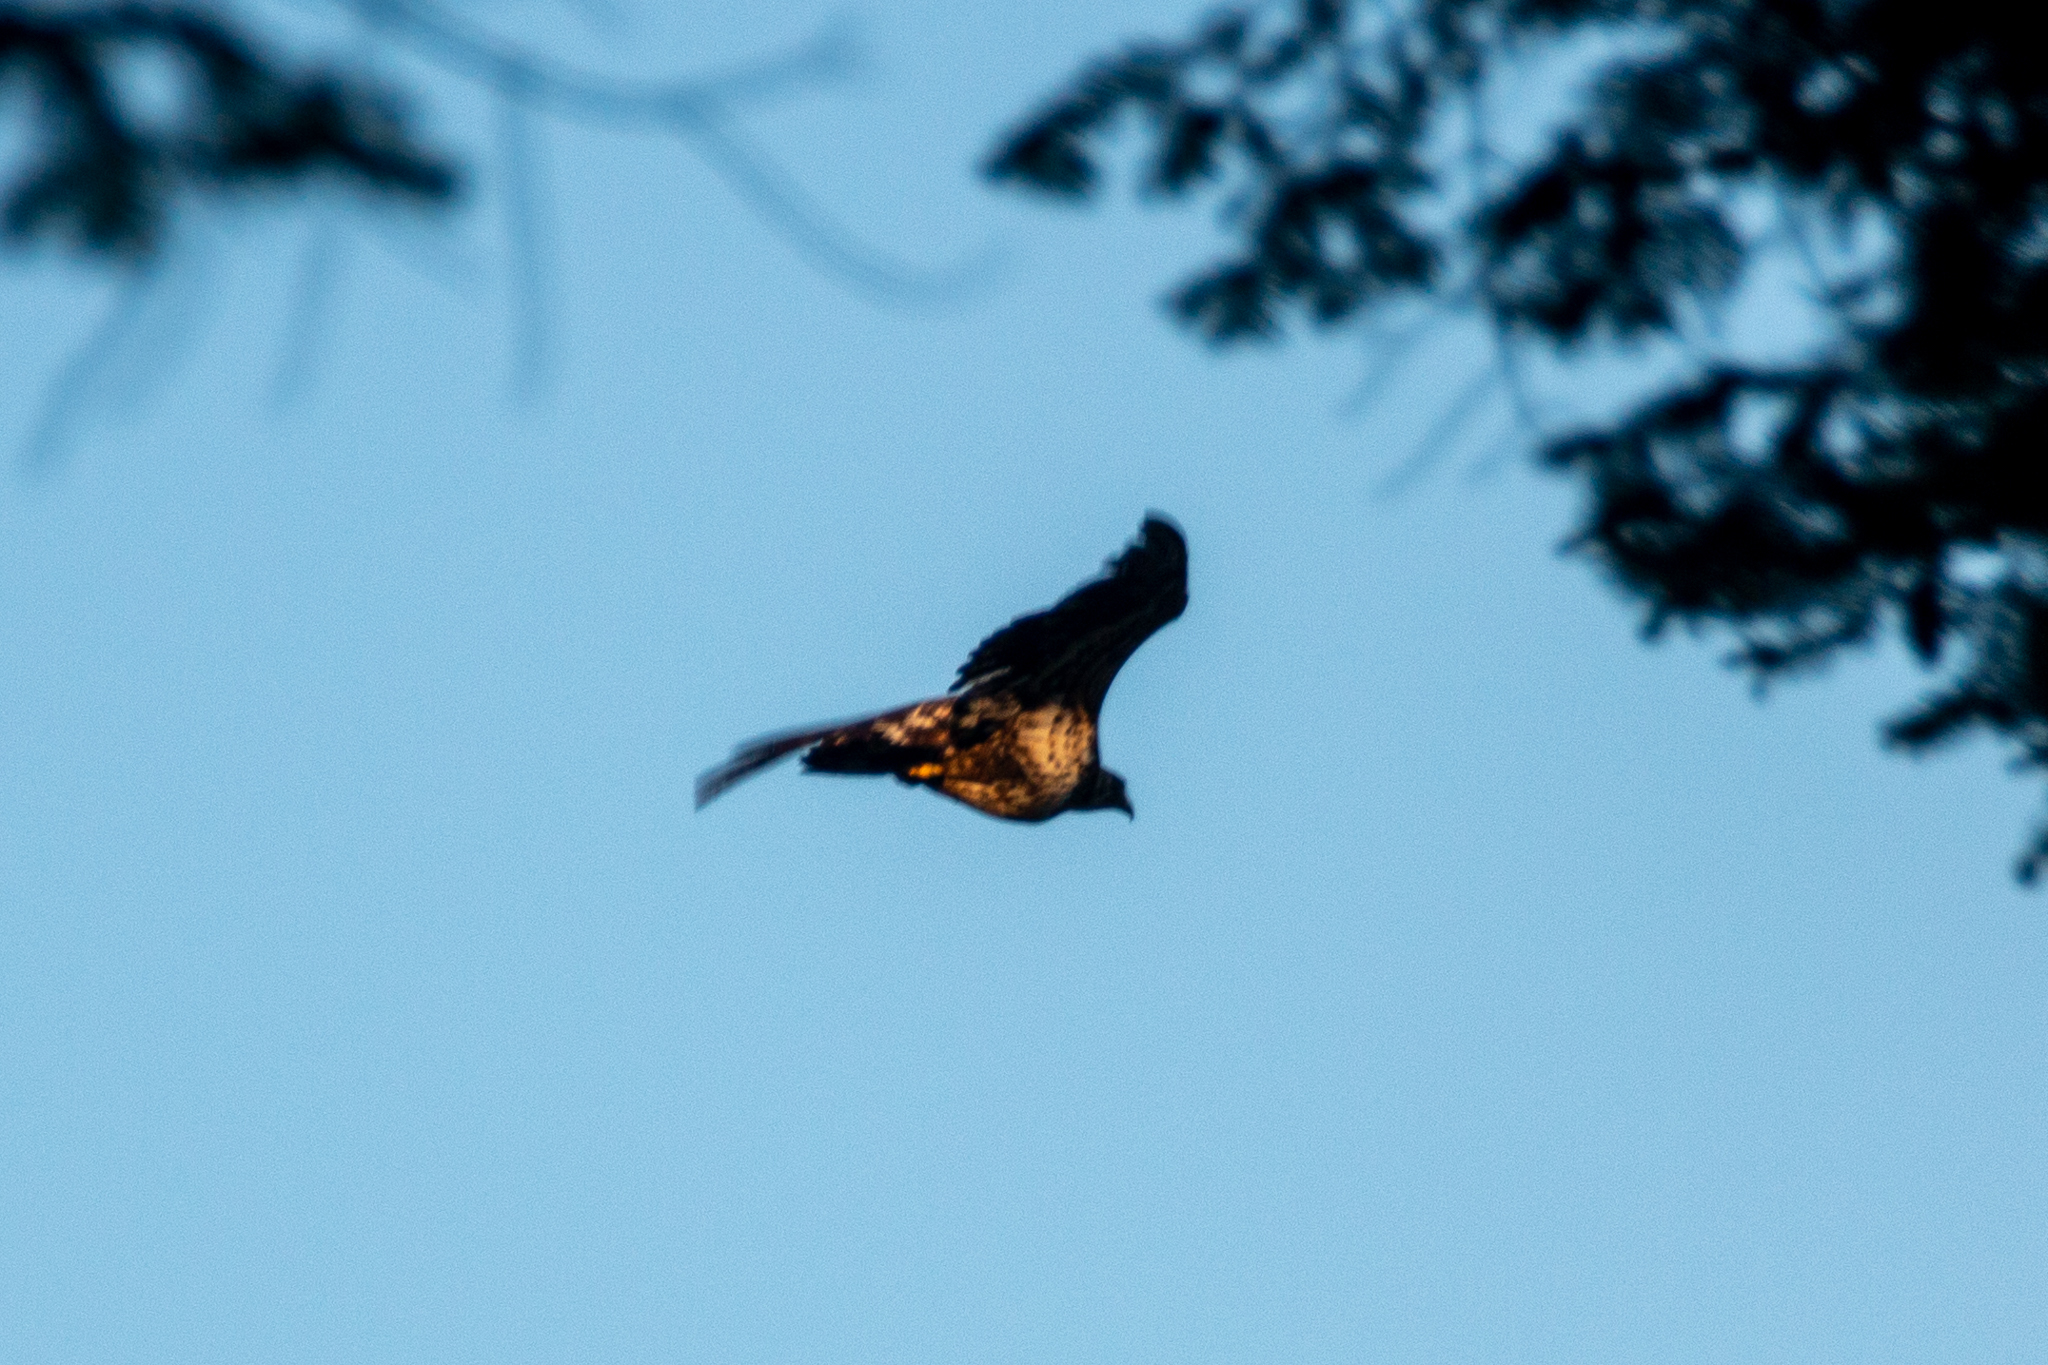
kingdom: Animalia
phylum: Chordata
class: Aves
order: Accipitriformes
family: Accipitridae
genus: Haliaeetus
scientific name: Haliaeetus leucocephalus
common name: Bald eagle
